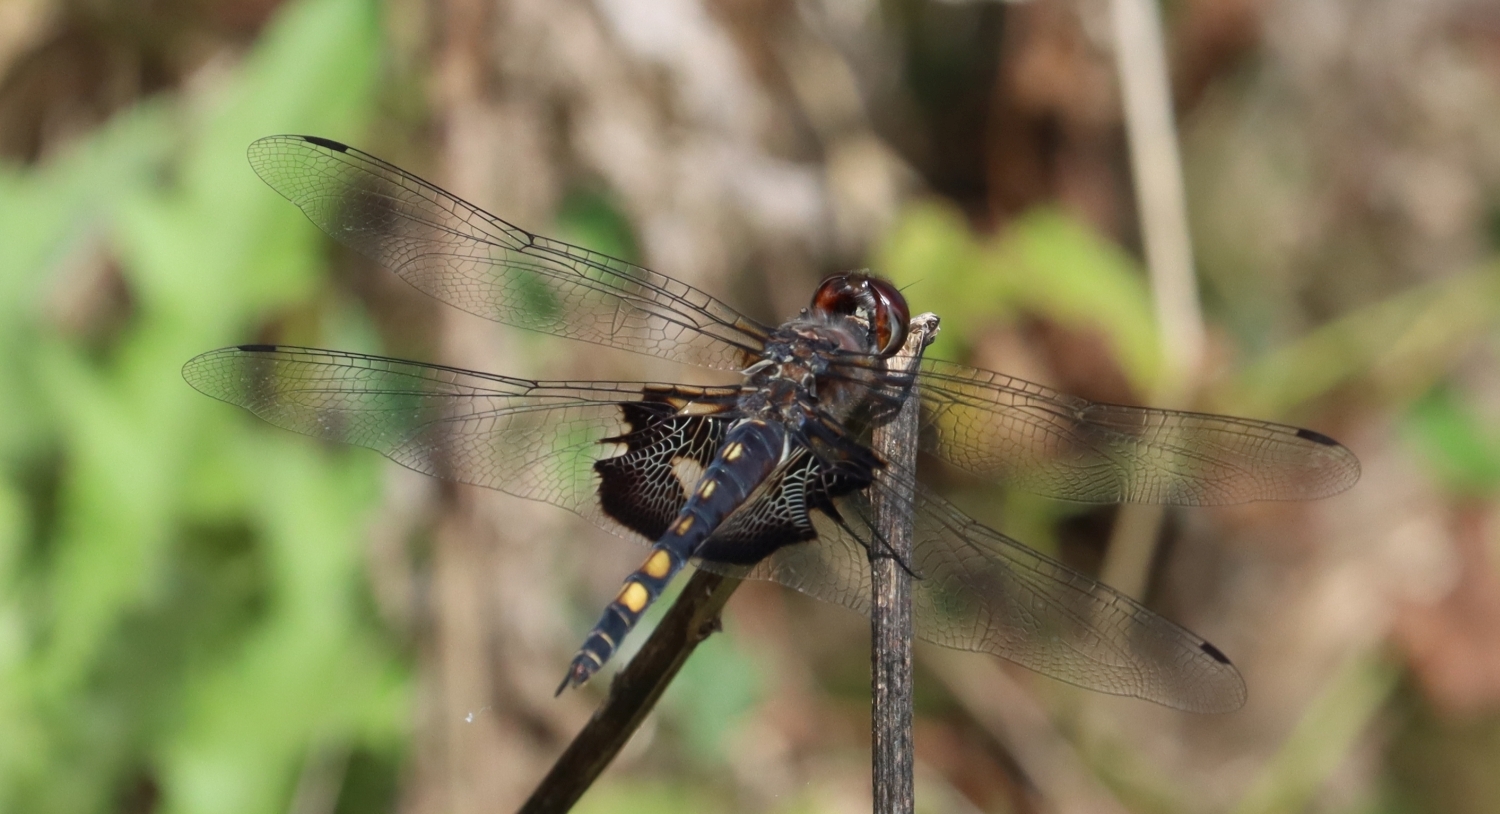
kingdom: Animalia
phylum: Arthropoda
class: Insecta
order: Odonata
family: Libellulidae
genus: Tramea
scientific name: Tramea lacerata
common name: Black saddlebags
